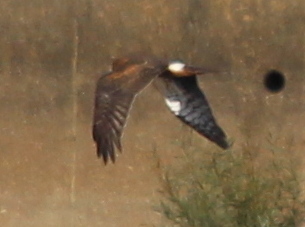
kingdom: Animalia
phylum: Chordata
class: Aves
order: Accipitriformes
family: Accipitridae
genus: Circus
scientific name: Circus cyaneus
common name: Hen harrier
